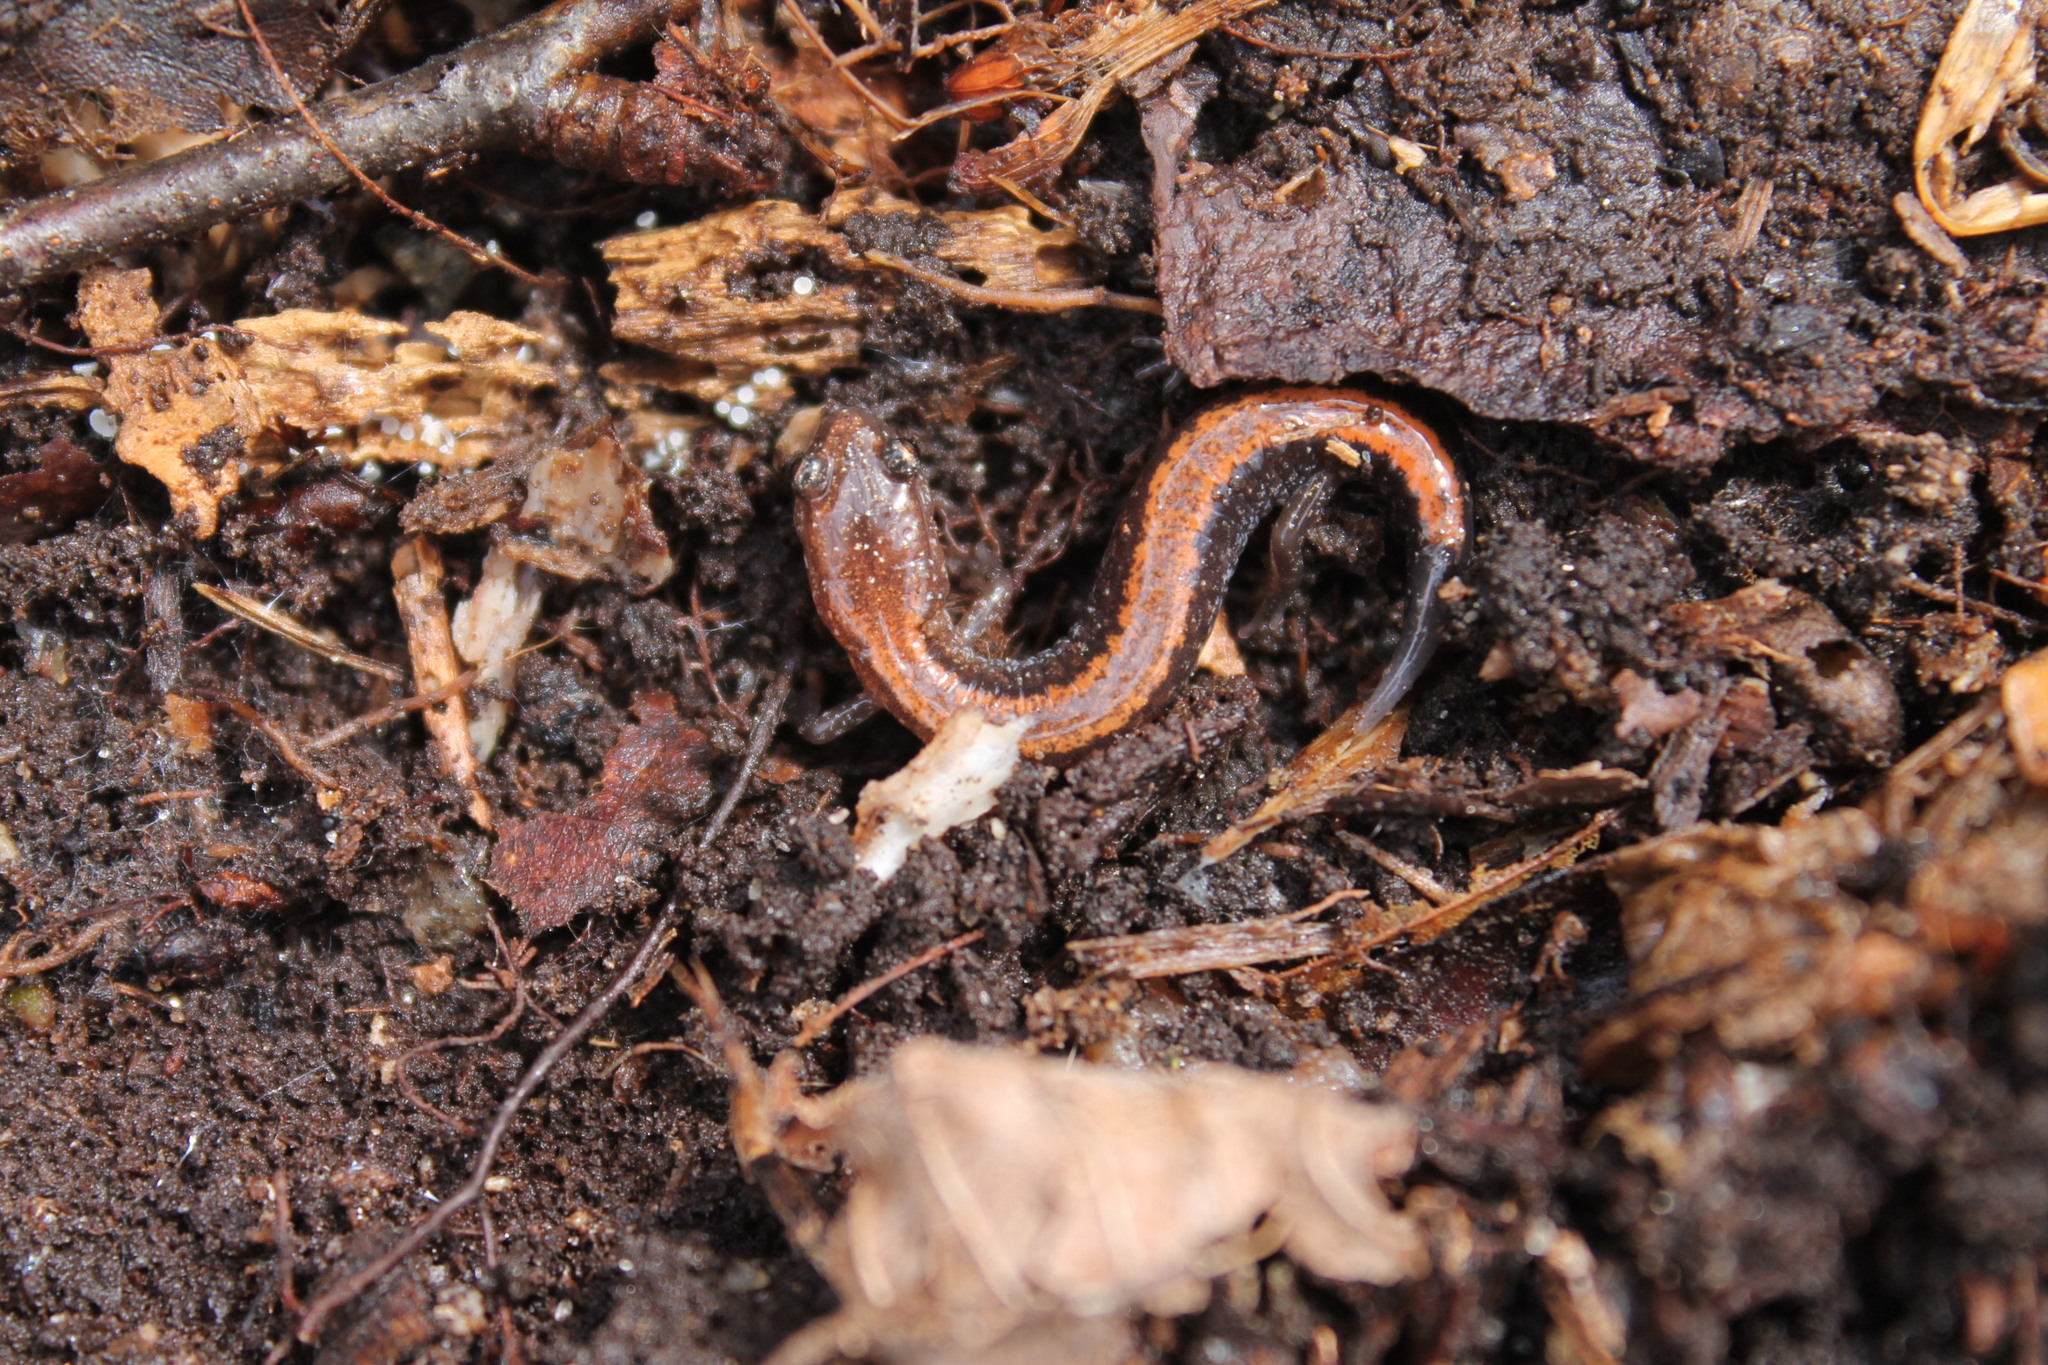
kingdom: Animalia
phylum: Chordata
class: Amphibia
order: Caudata
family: Plethodontidae
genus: Plethodon
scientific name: Plethodon cinereus
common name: Redback salamander
